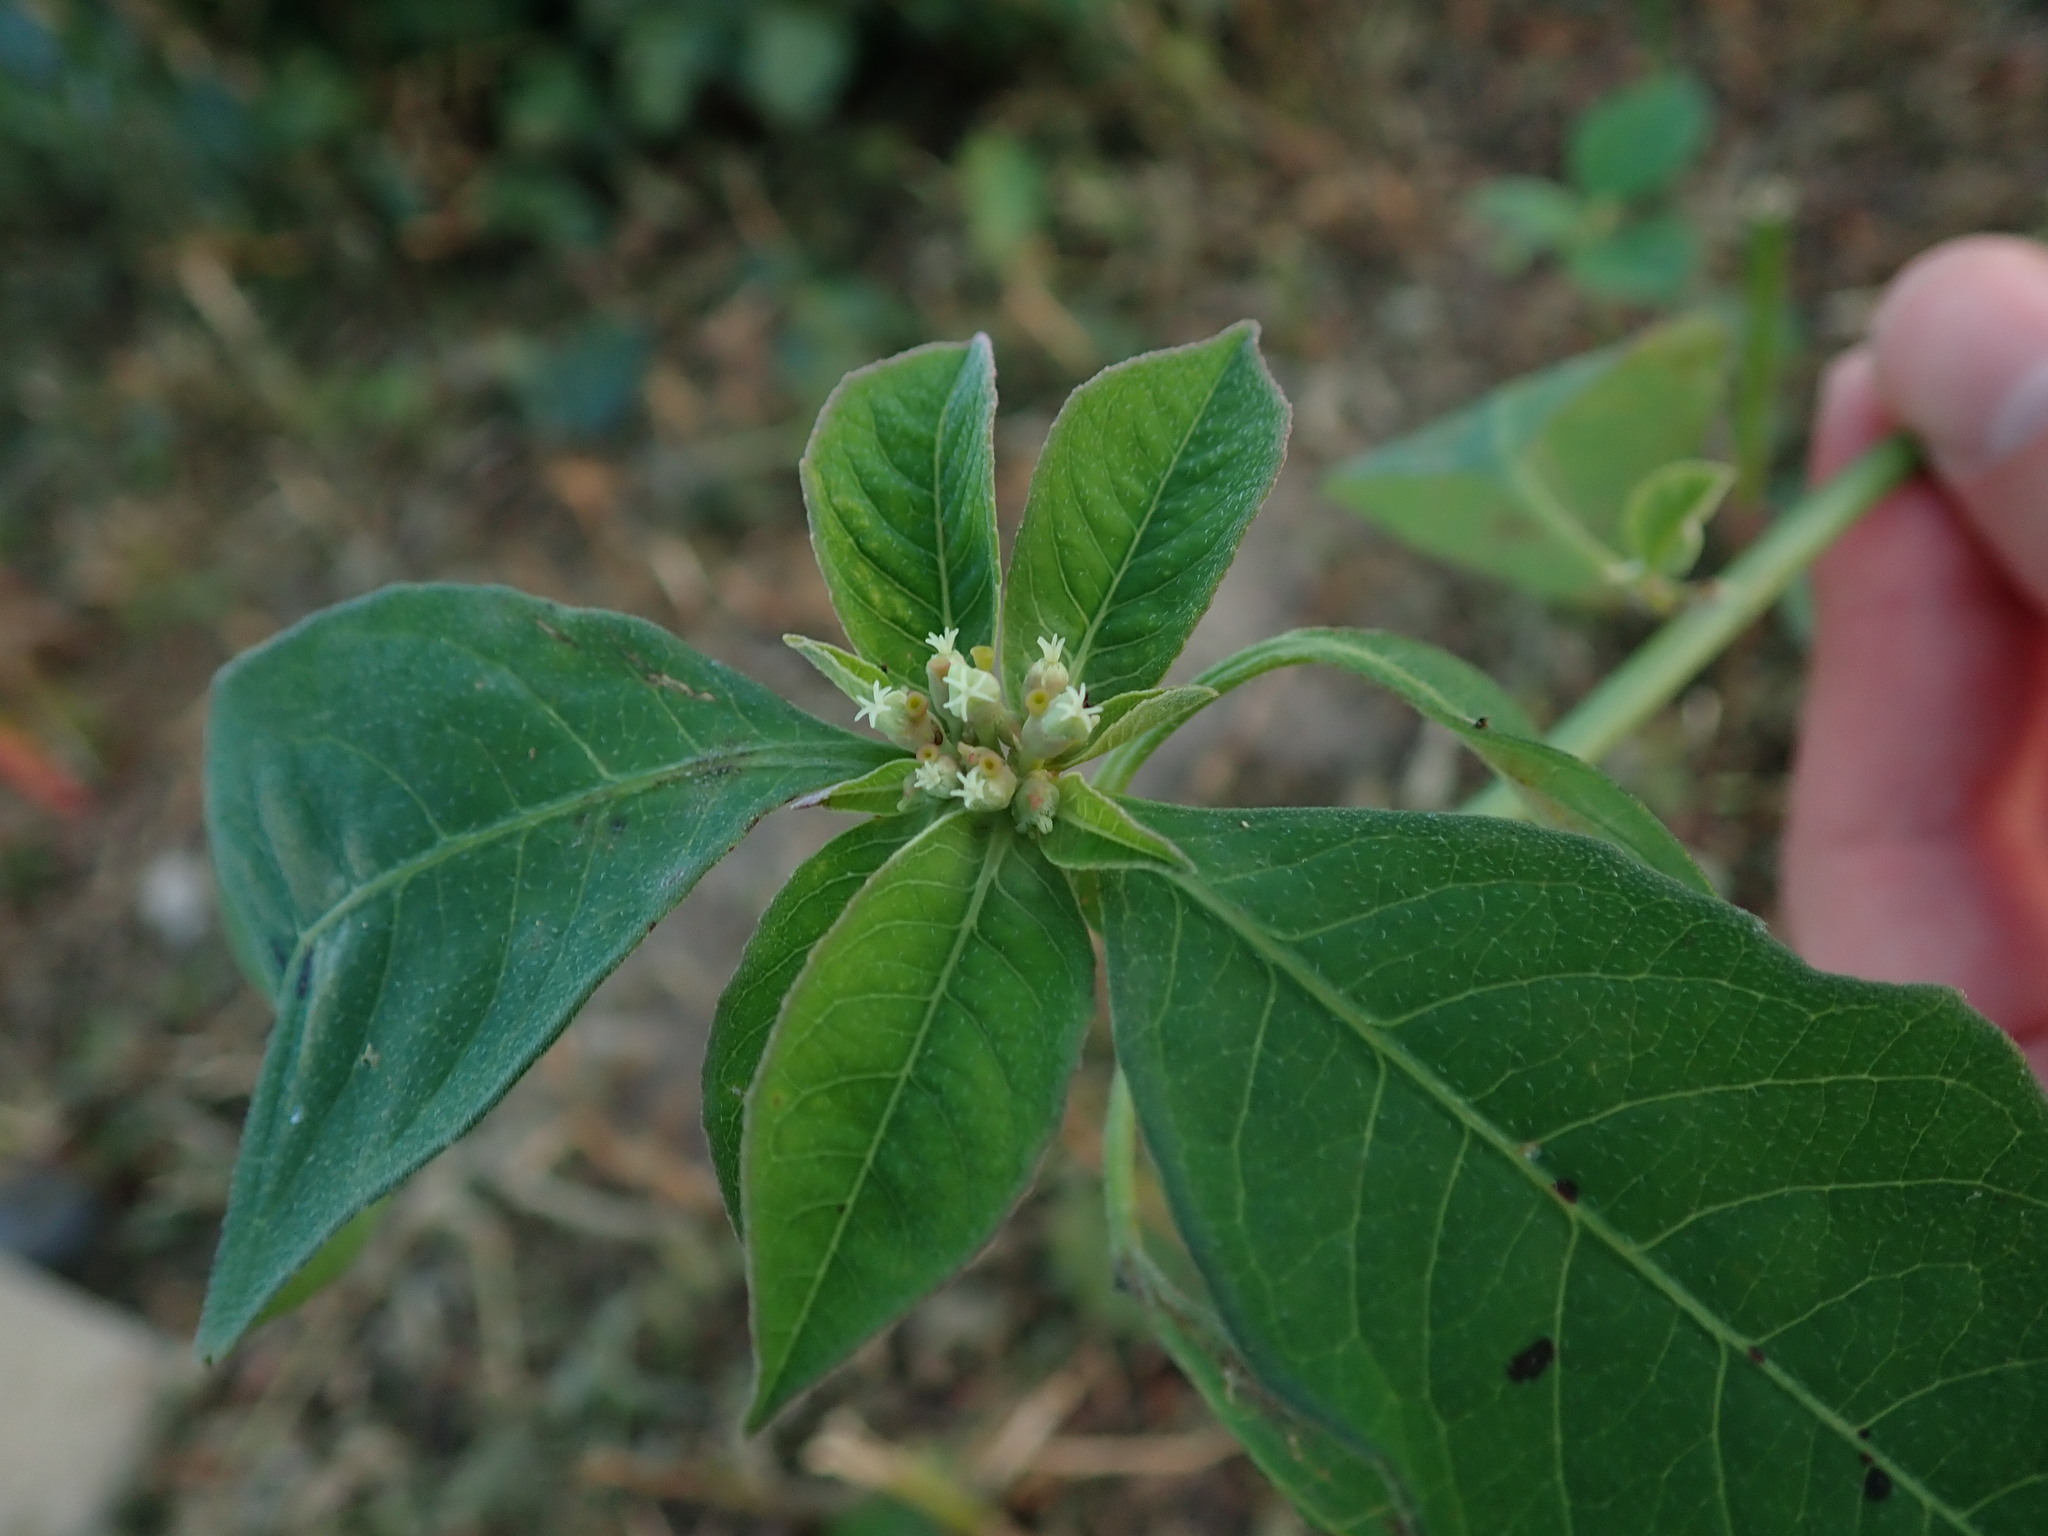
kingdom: Plantae
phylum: Tracheophyta
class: Magnoliopsida
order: Malpighiales
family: Euphorbiaceae
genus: Euphorbia
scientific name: Euphorbia heterophylla
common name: Mexican fireplant
